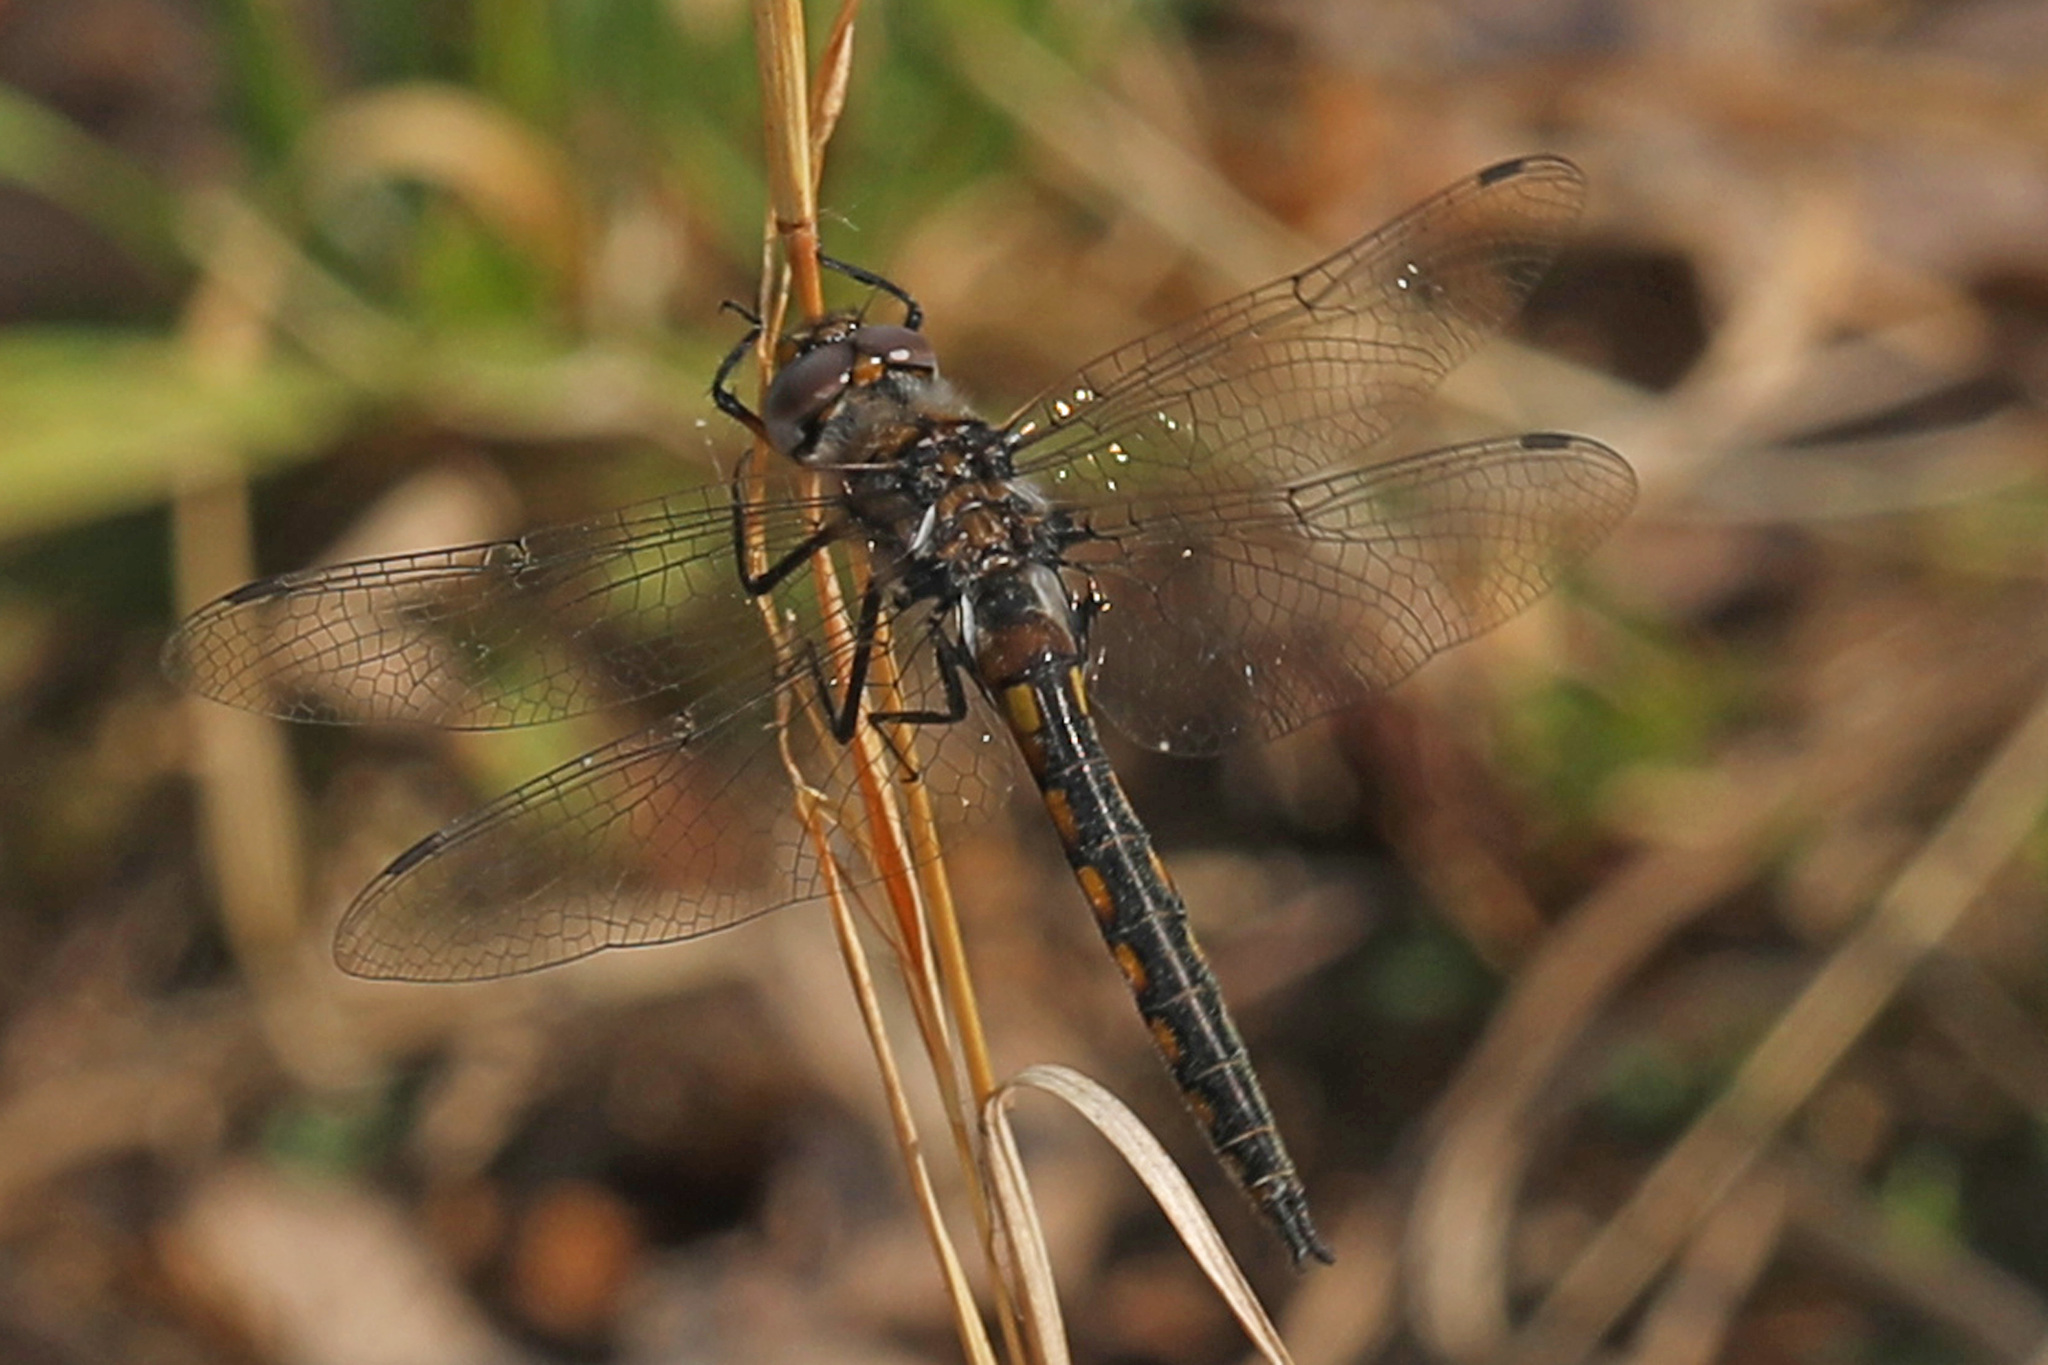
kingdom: Animalia
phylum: Arthropoda
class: Insecta
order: Odonata
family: Corduliidae
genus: Epitheca
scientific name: Epitheca cynosura
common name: Common baskettail
